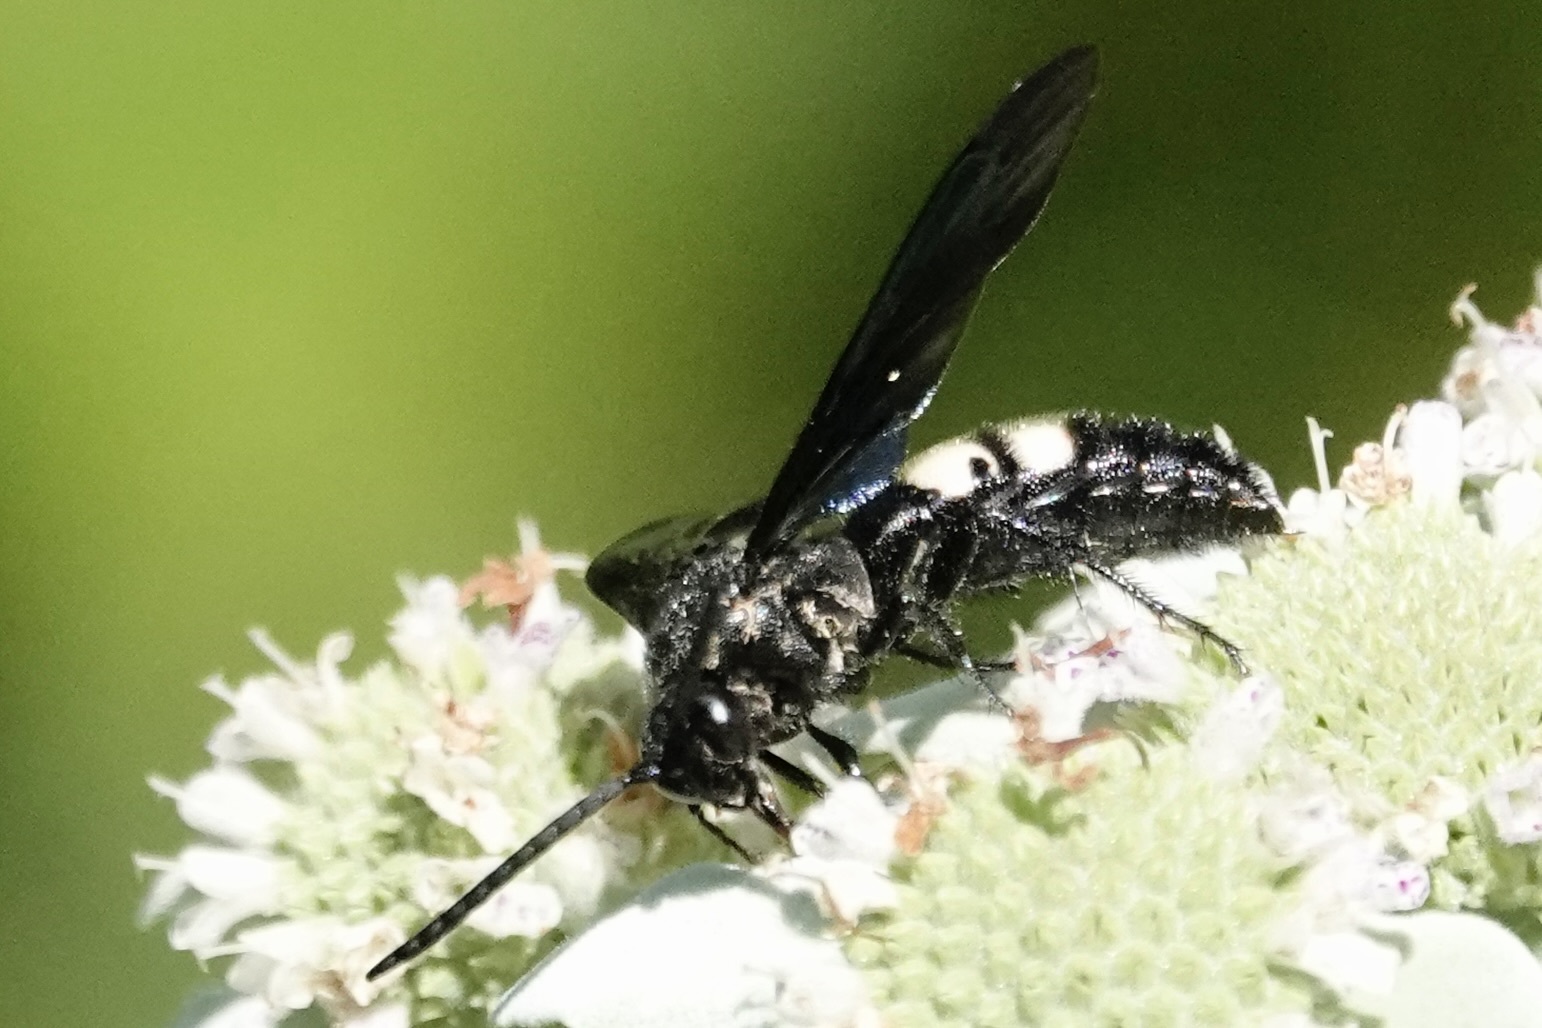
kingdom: Animalia
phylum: Arthropoda
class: Insecta
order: Hymenoptera
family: Scoliidae
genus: Scolia
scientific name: Scolia bicincta
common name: Double-banded scoliid wasp
